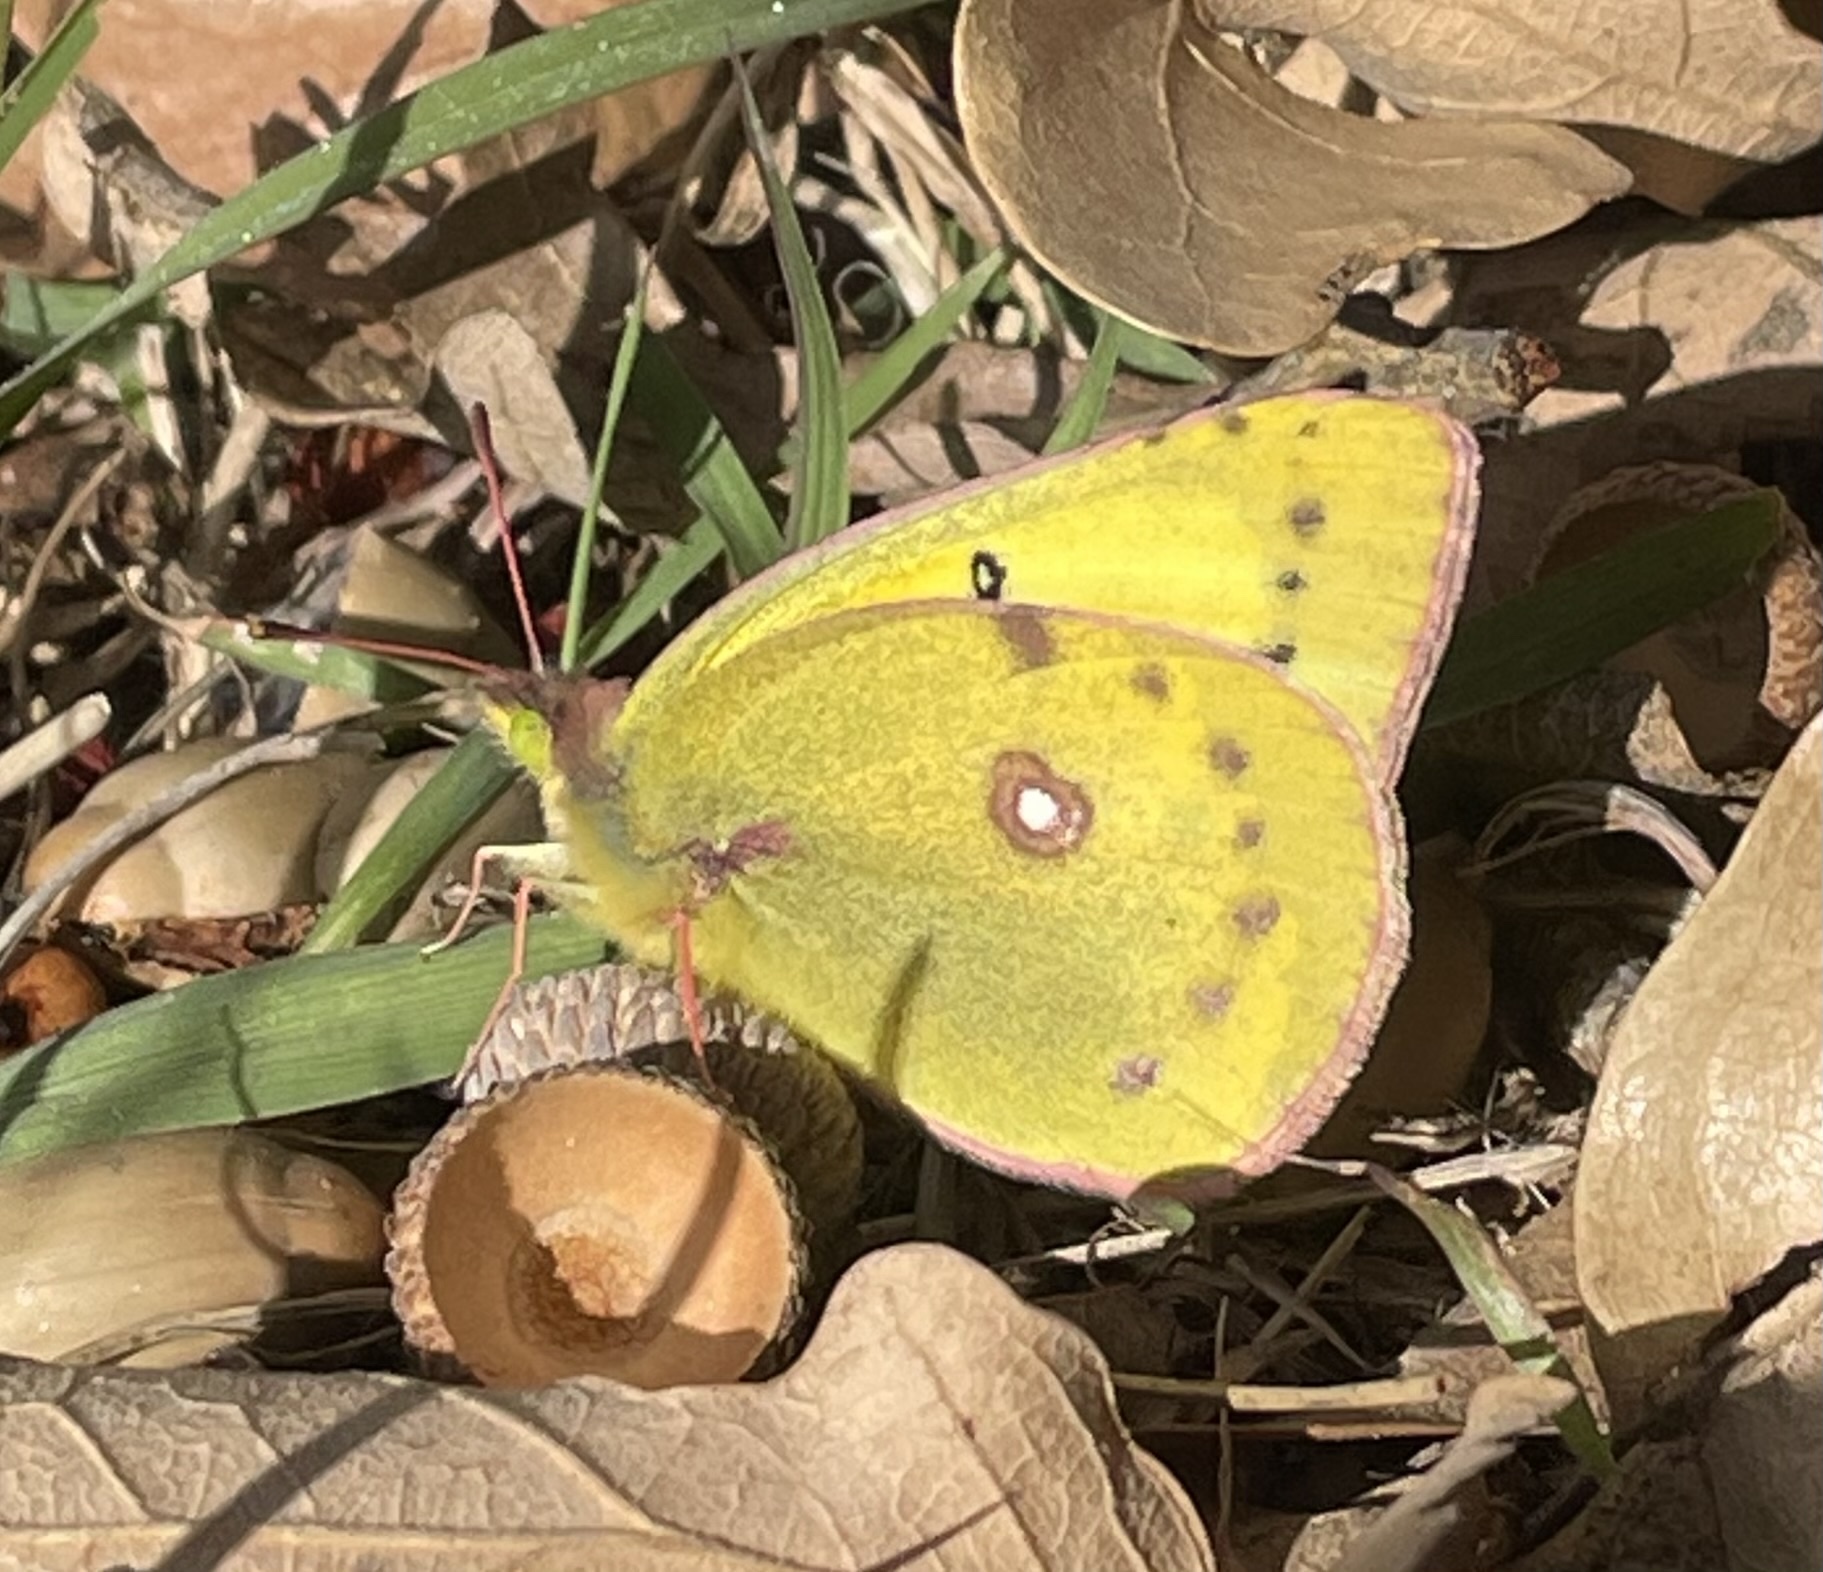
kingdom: Animalia
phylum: Arthropoda
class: Insecta
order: Lepidoptera
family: Pieridae
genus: Colias
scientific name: Colias eurytheme
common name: Alfalfa butterfly
